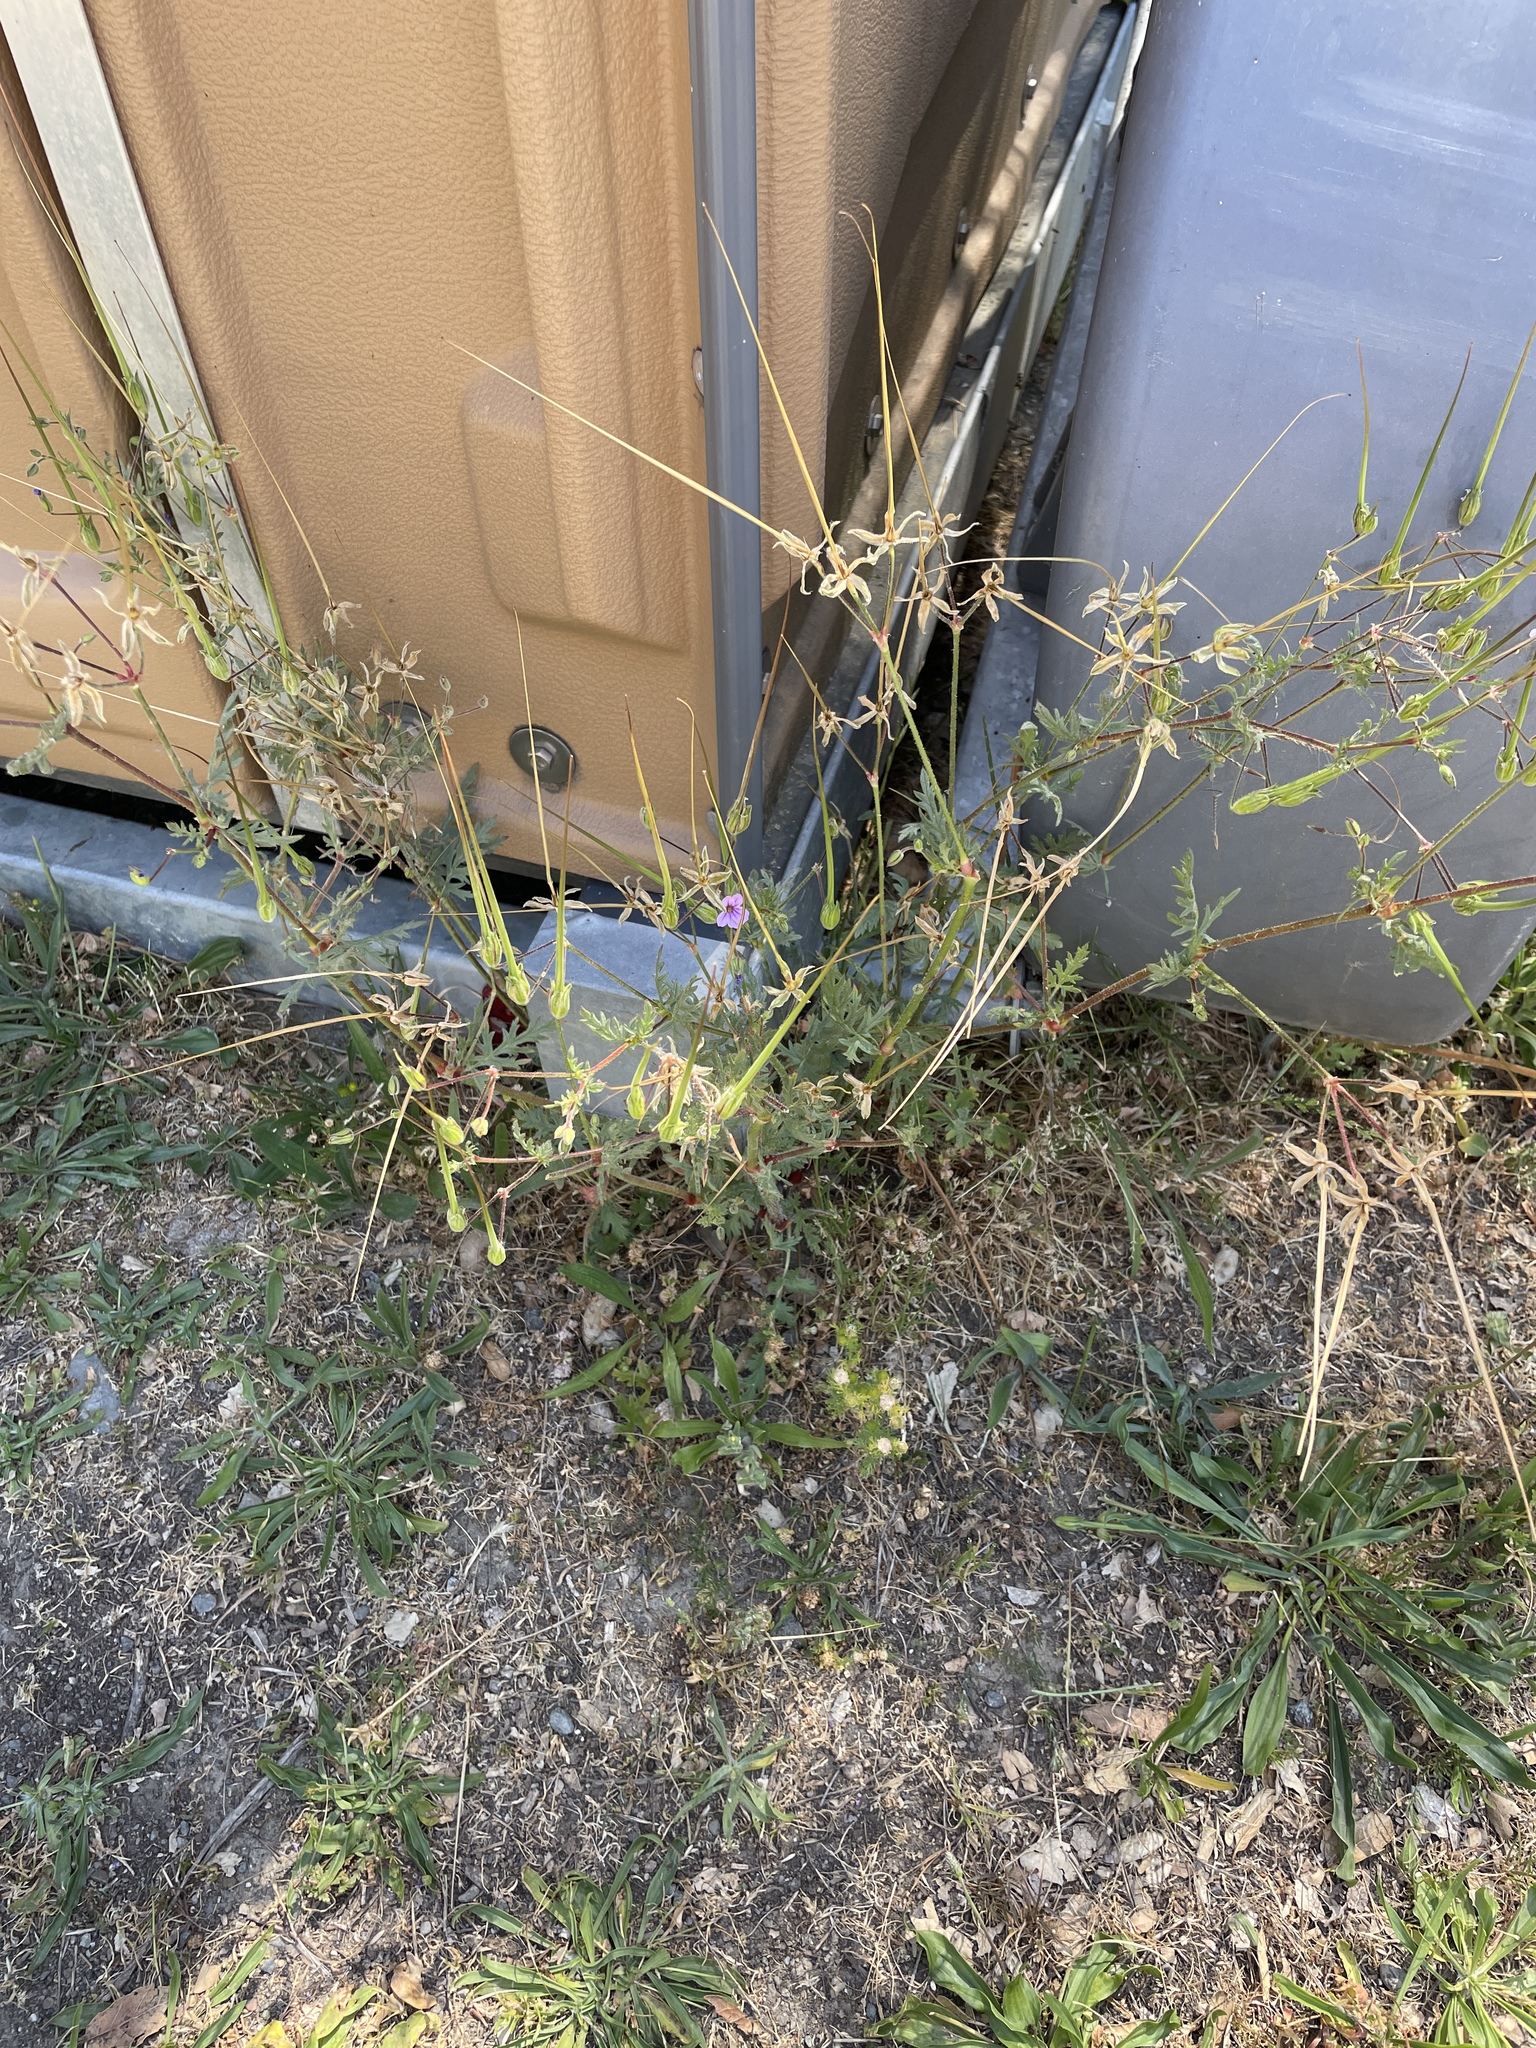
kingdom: Plantae
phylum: Tracheophyta
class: Magnoliopsida
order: Geraniales
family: Geraniaceae
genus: Erodium
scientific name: Erodium botrys
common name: Mediterranean stork's-bill
